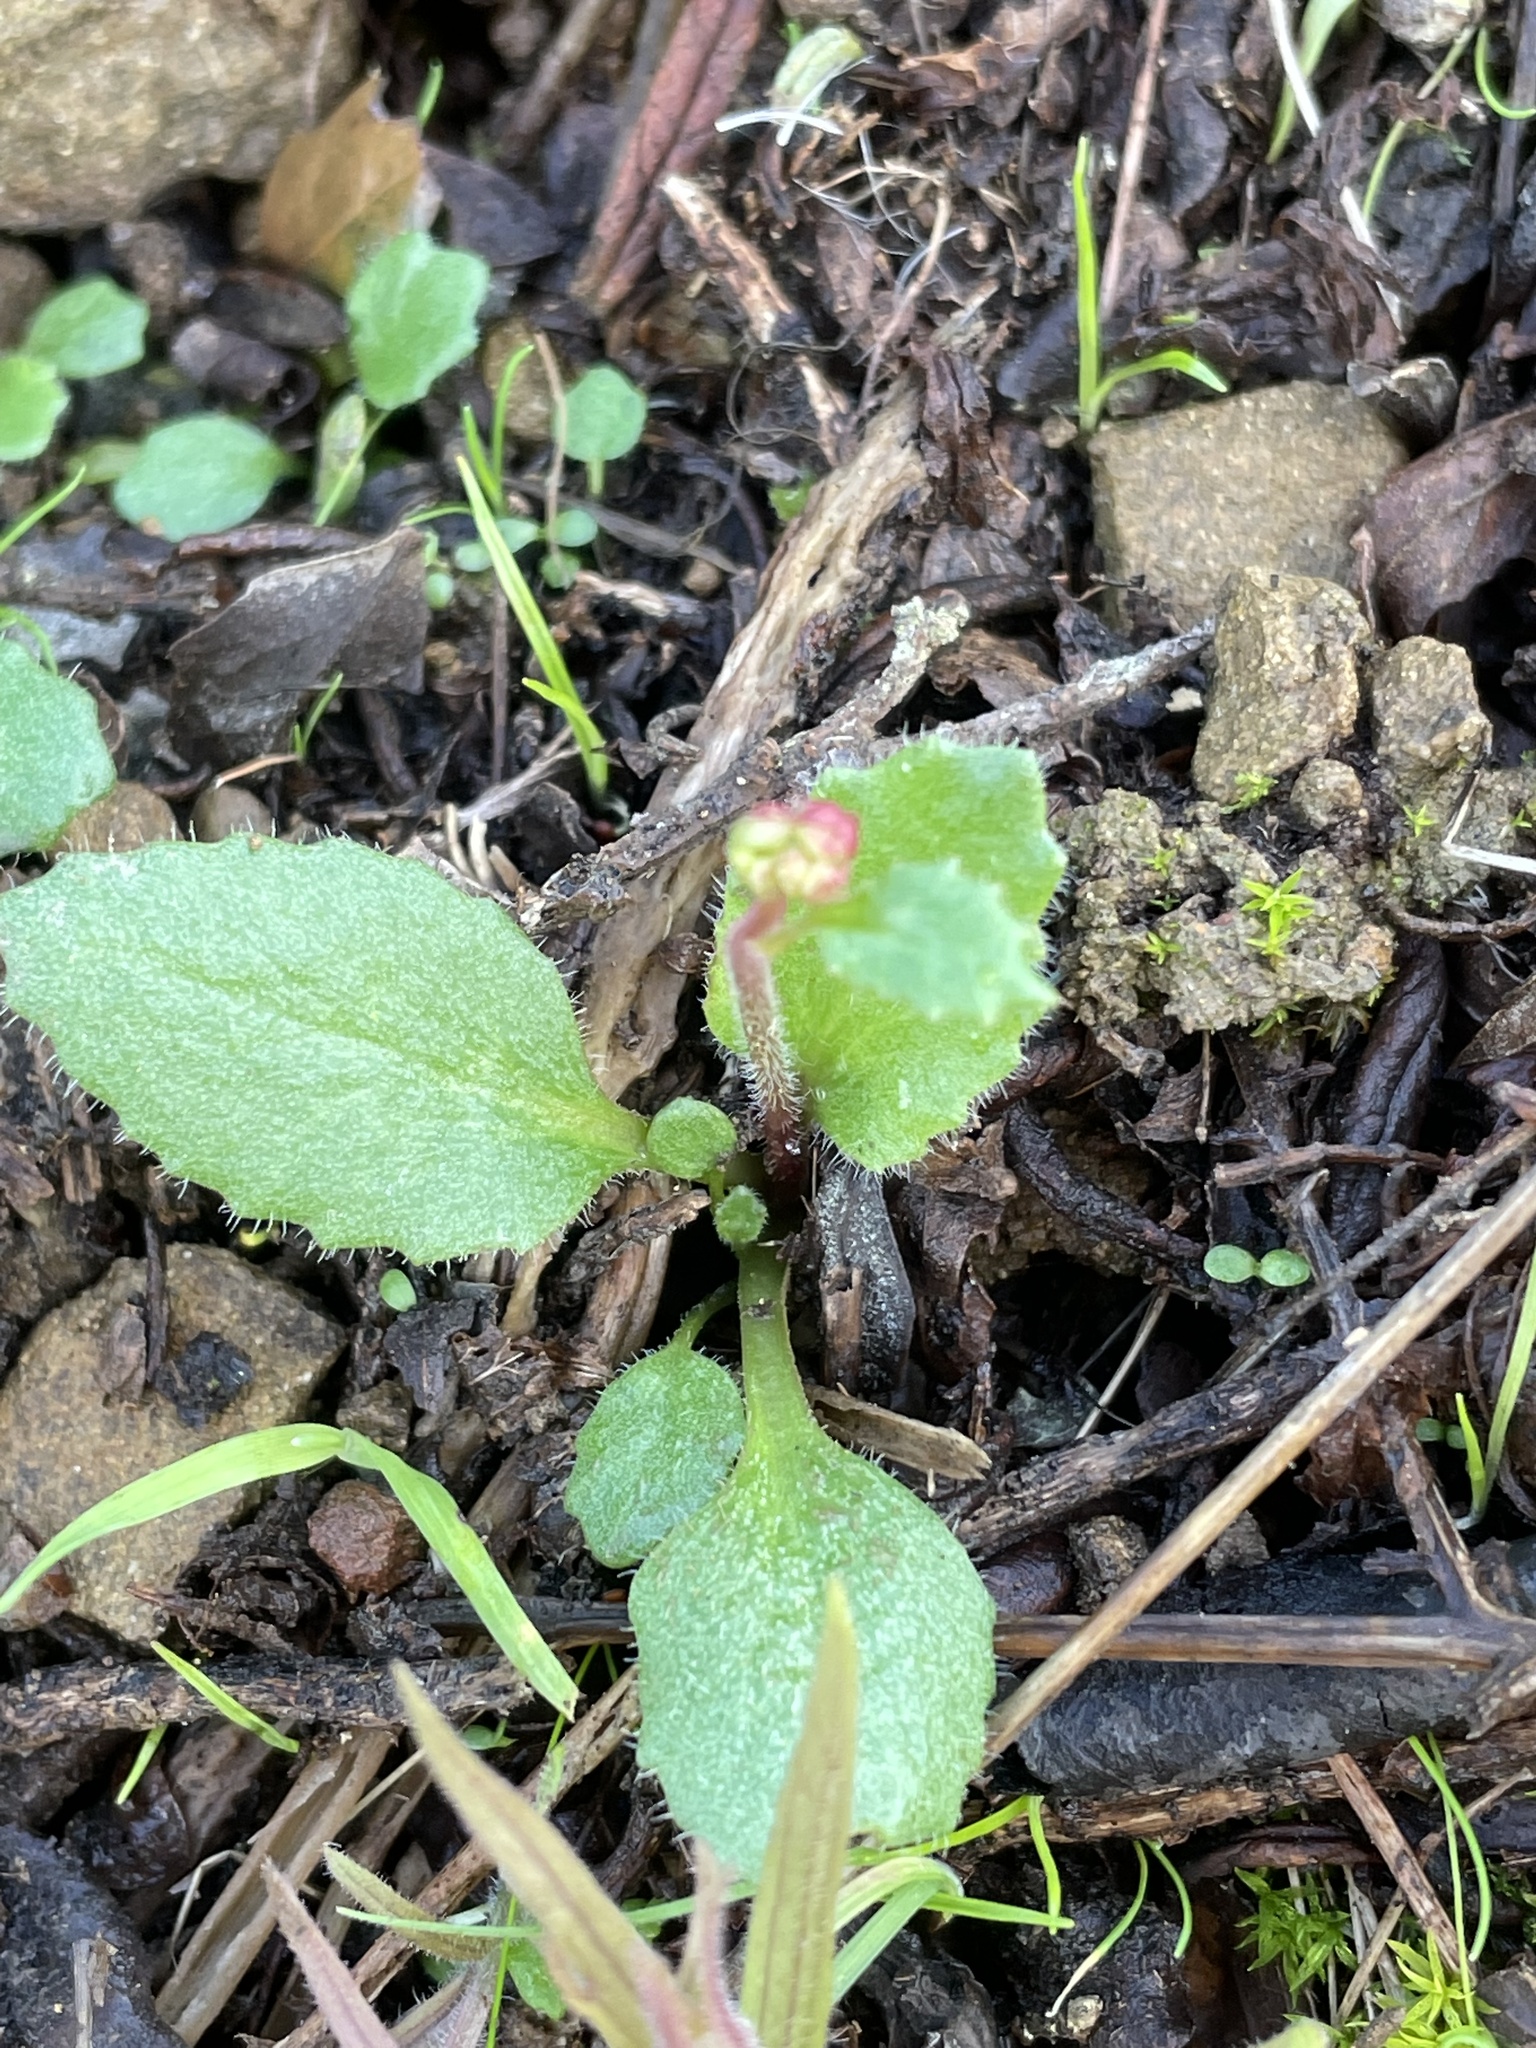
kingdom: Plantae
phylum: Tracheophyta
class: Magnoliopsida
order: Saxifragales
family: Saxifragaceae
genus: Micranthes
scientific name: Micranthes californica
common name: California saxifrage
